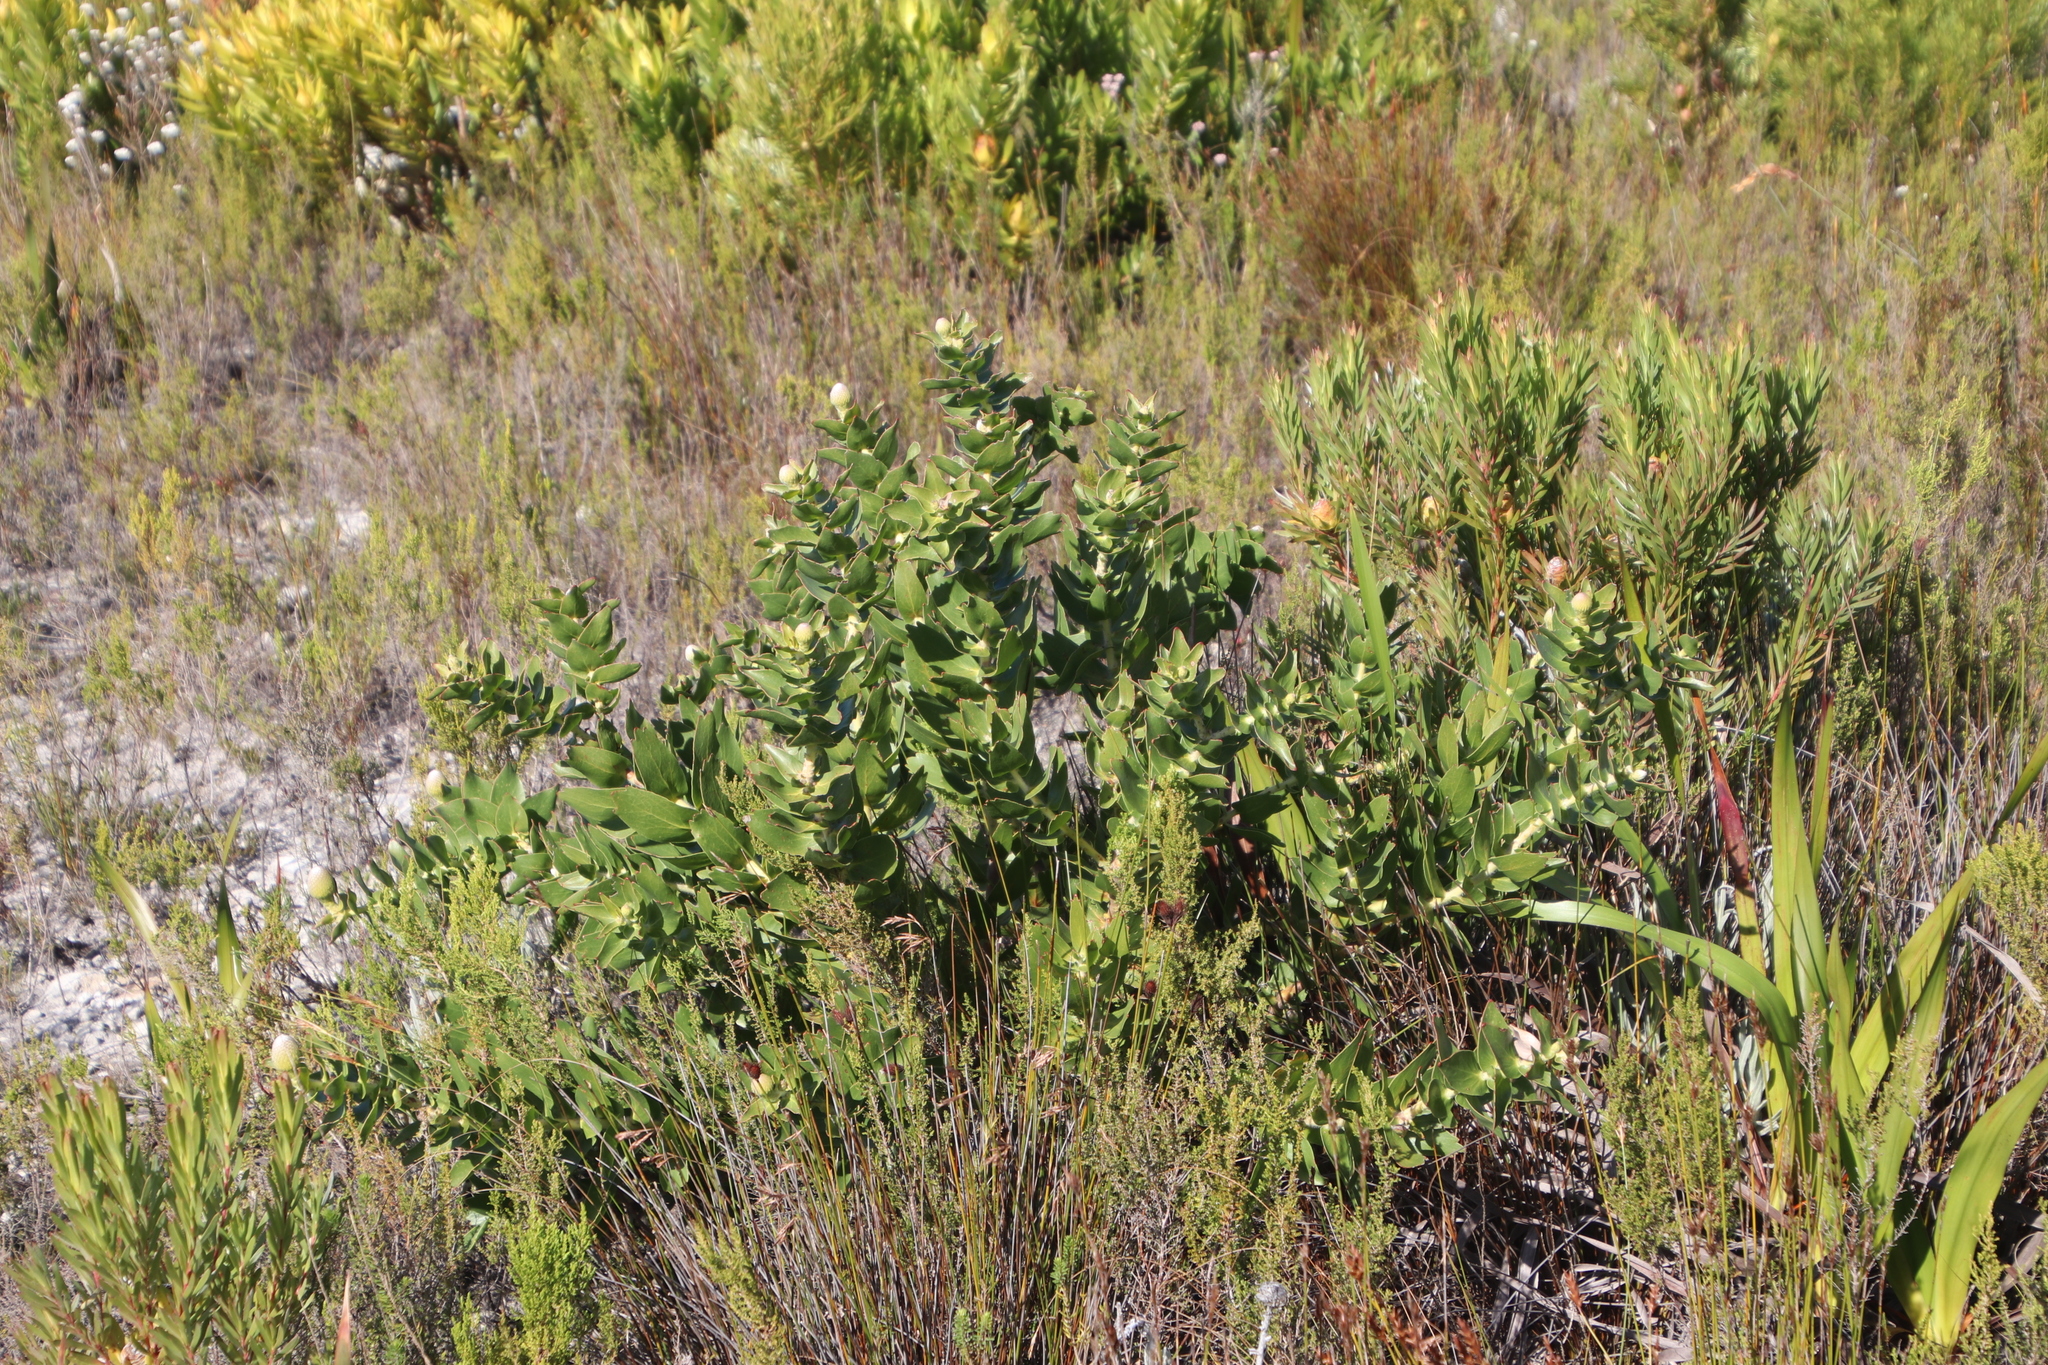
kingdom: Plantae
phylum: Tracheophyta
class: Magnoliopsida
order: Proteales
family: Proteaceae
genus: Leucospermum
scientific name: Leucospermum cordifolium
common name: Red pincushion-protea
